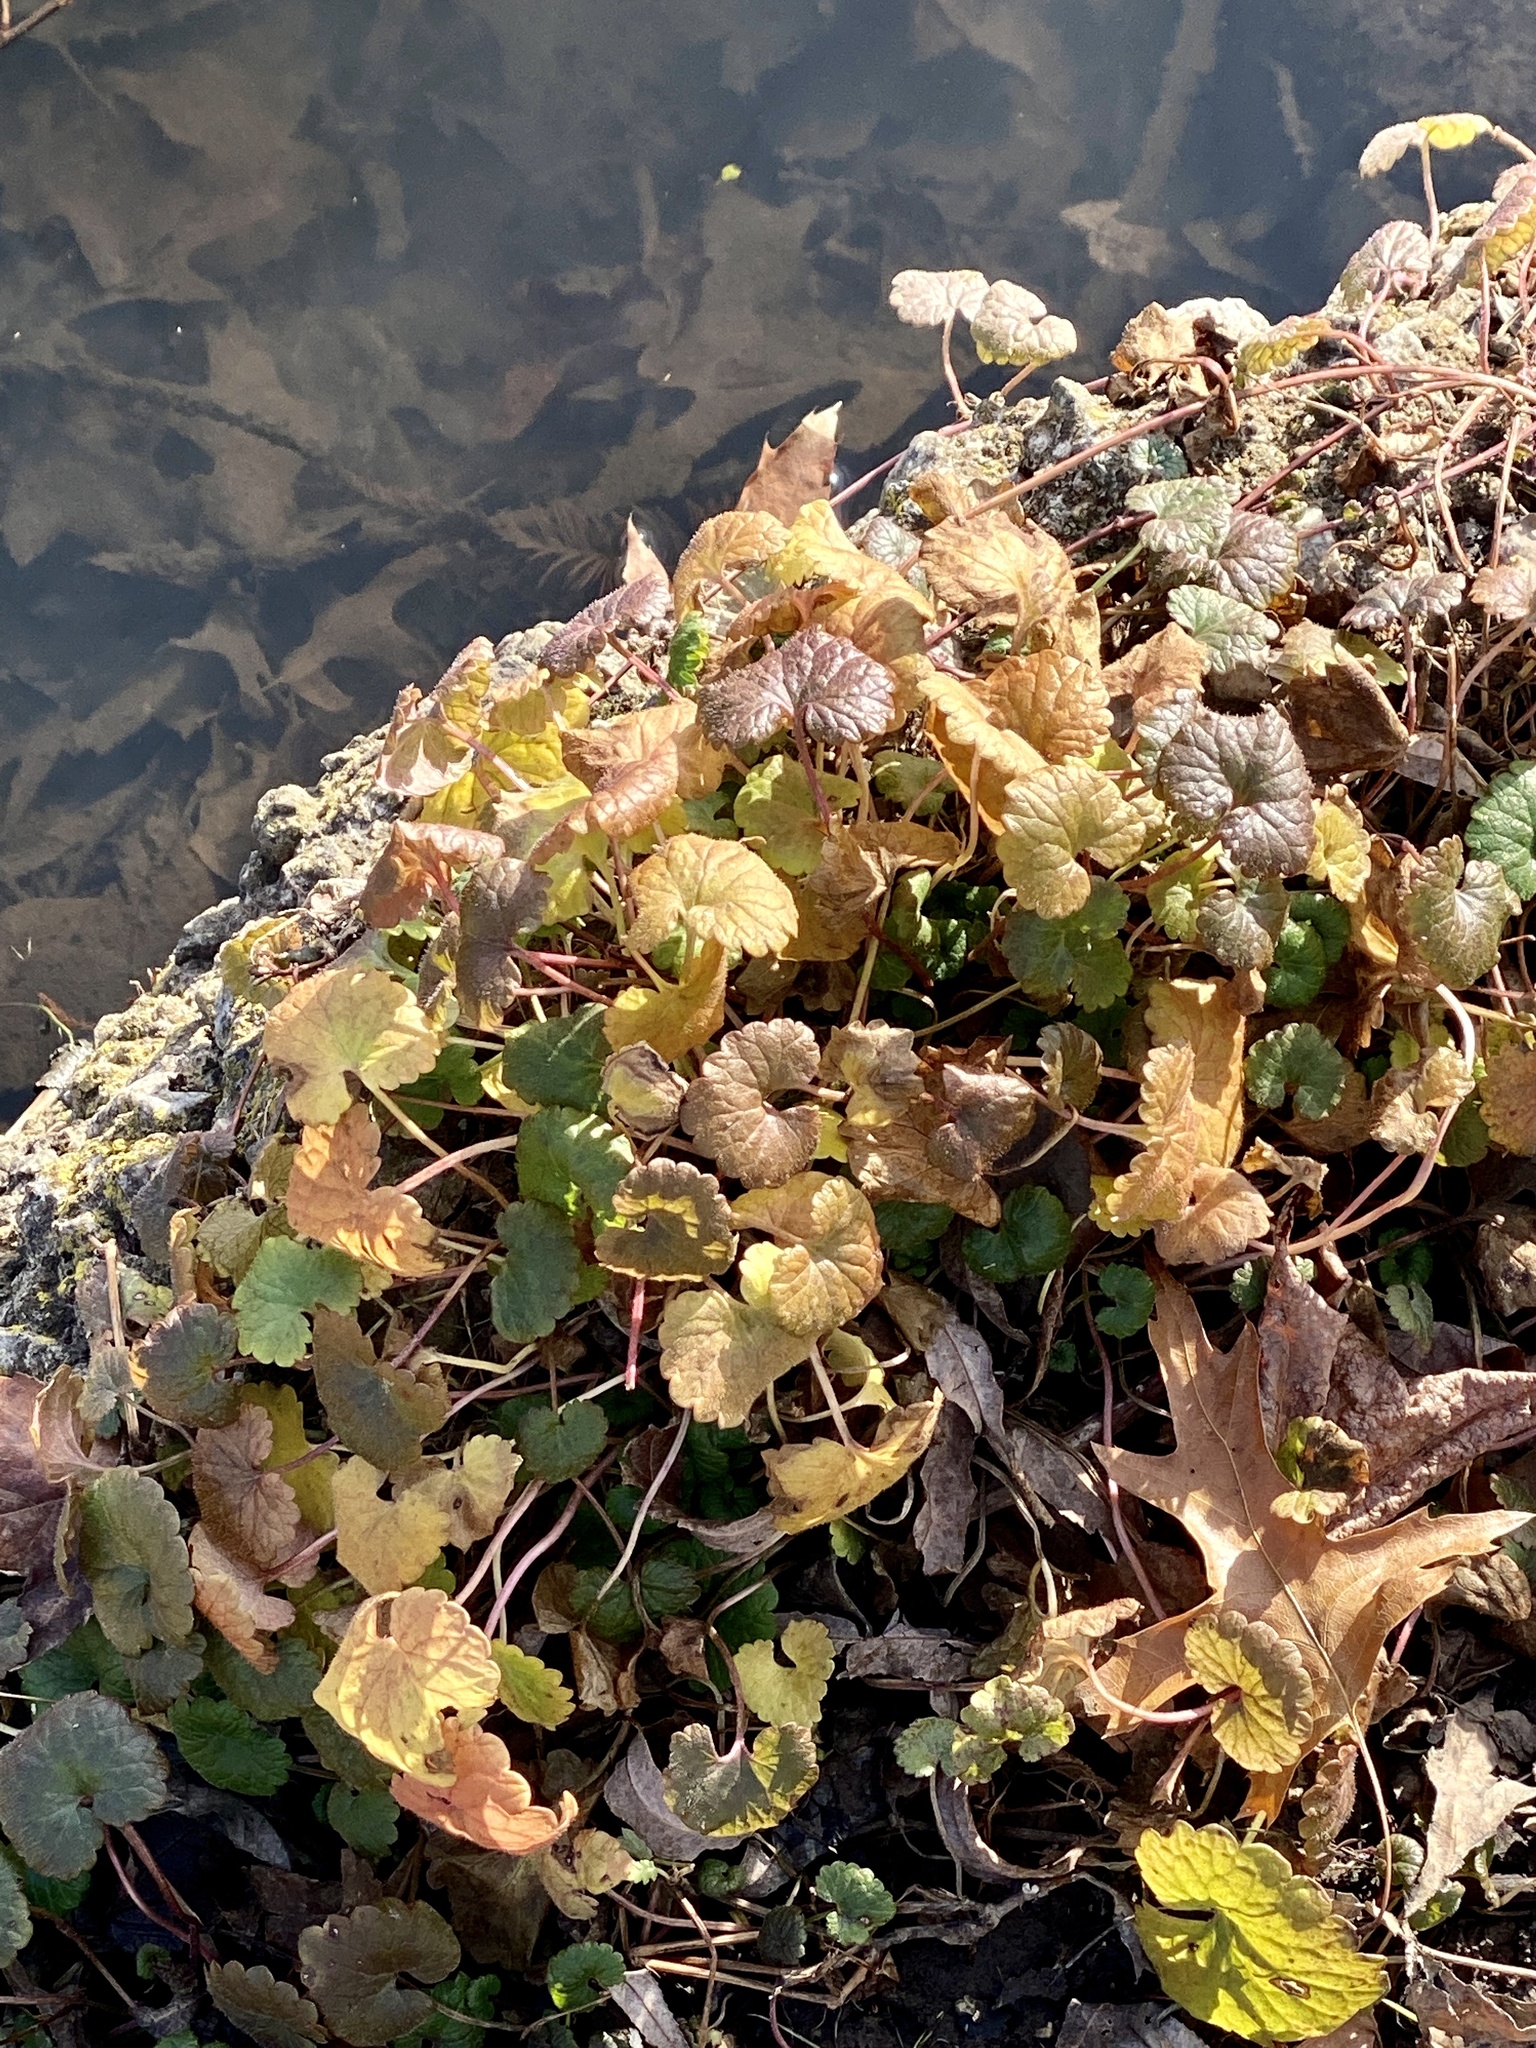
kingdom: Plantae
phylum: Tracheophyta
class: Magnoliopsida
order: Lamiales
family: Lamiaceae
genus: Glechoma
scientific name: Glechoma hederacea
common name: Ground ivy
